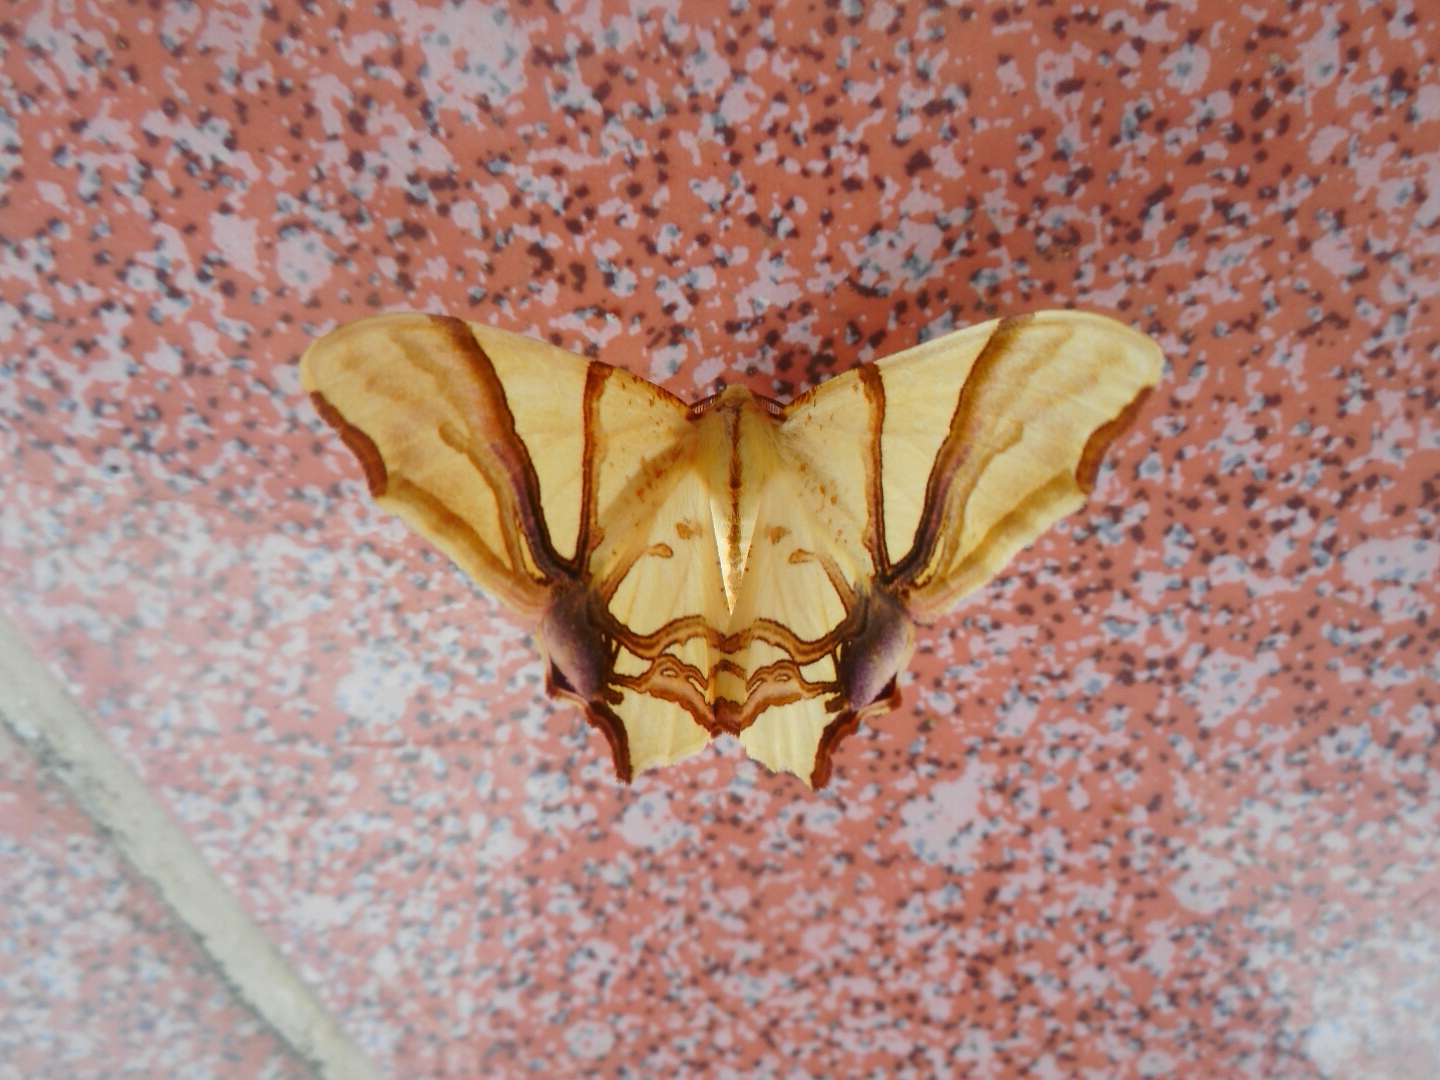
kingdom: Animalia
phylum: Arthropoda
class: Insecta
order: Lepidoptera
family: Geometridae
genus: Trotocraspeda
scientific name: Trotocraspeda divaricata
